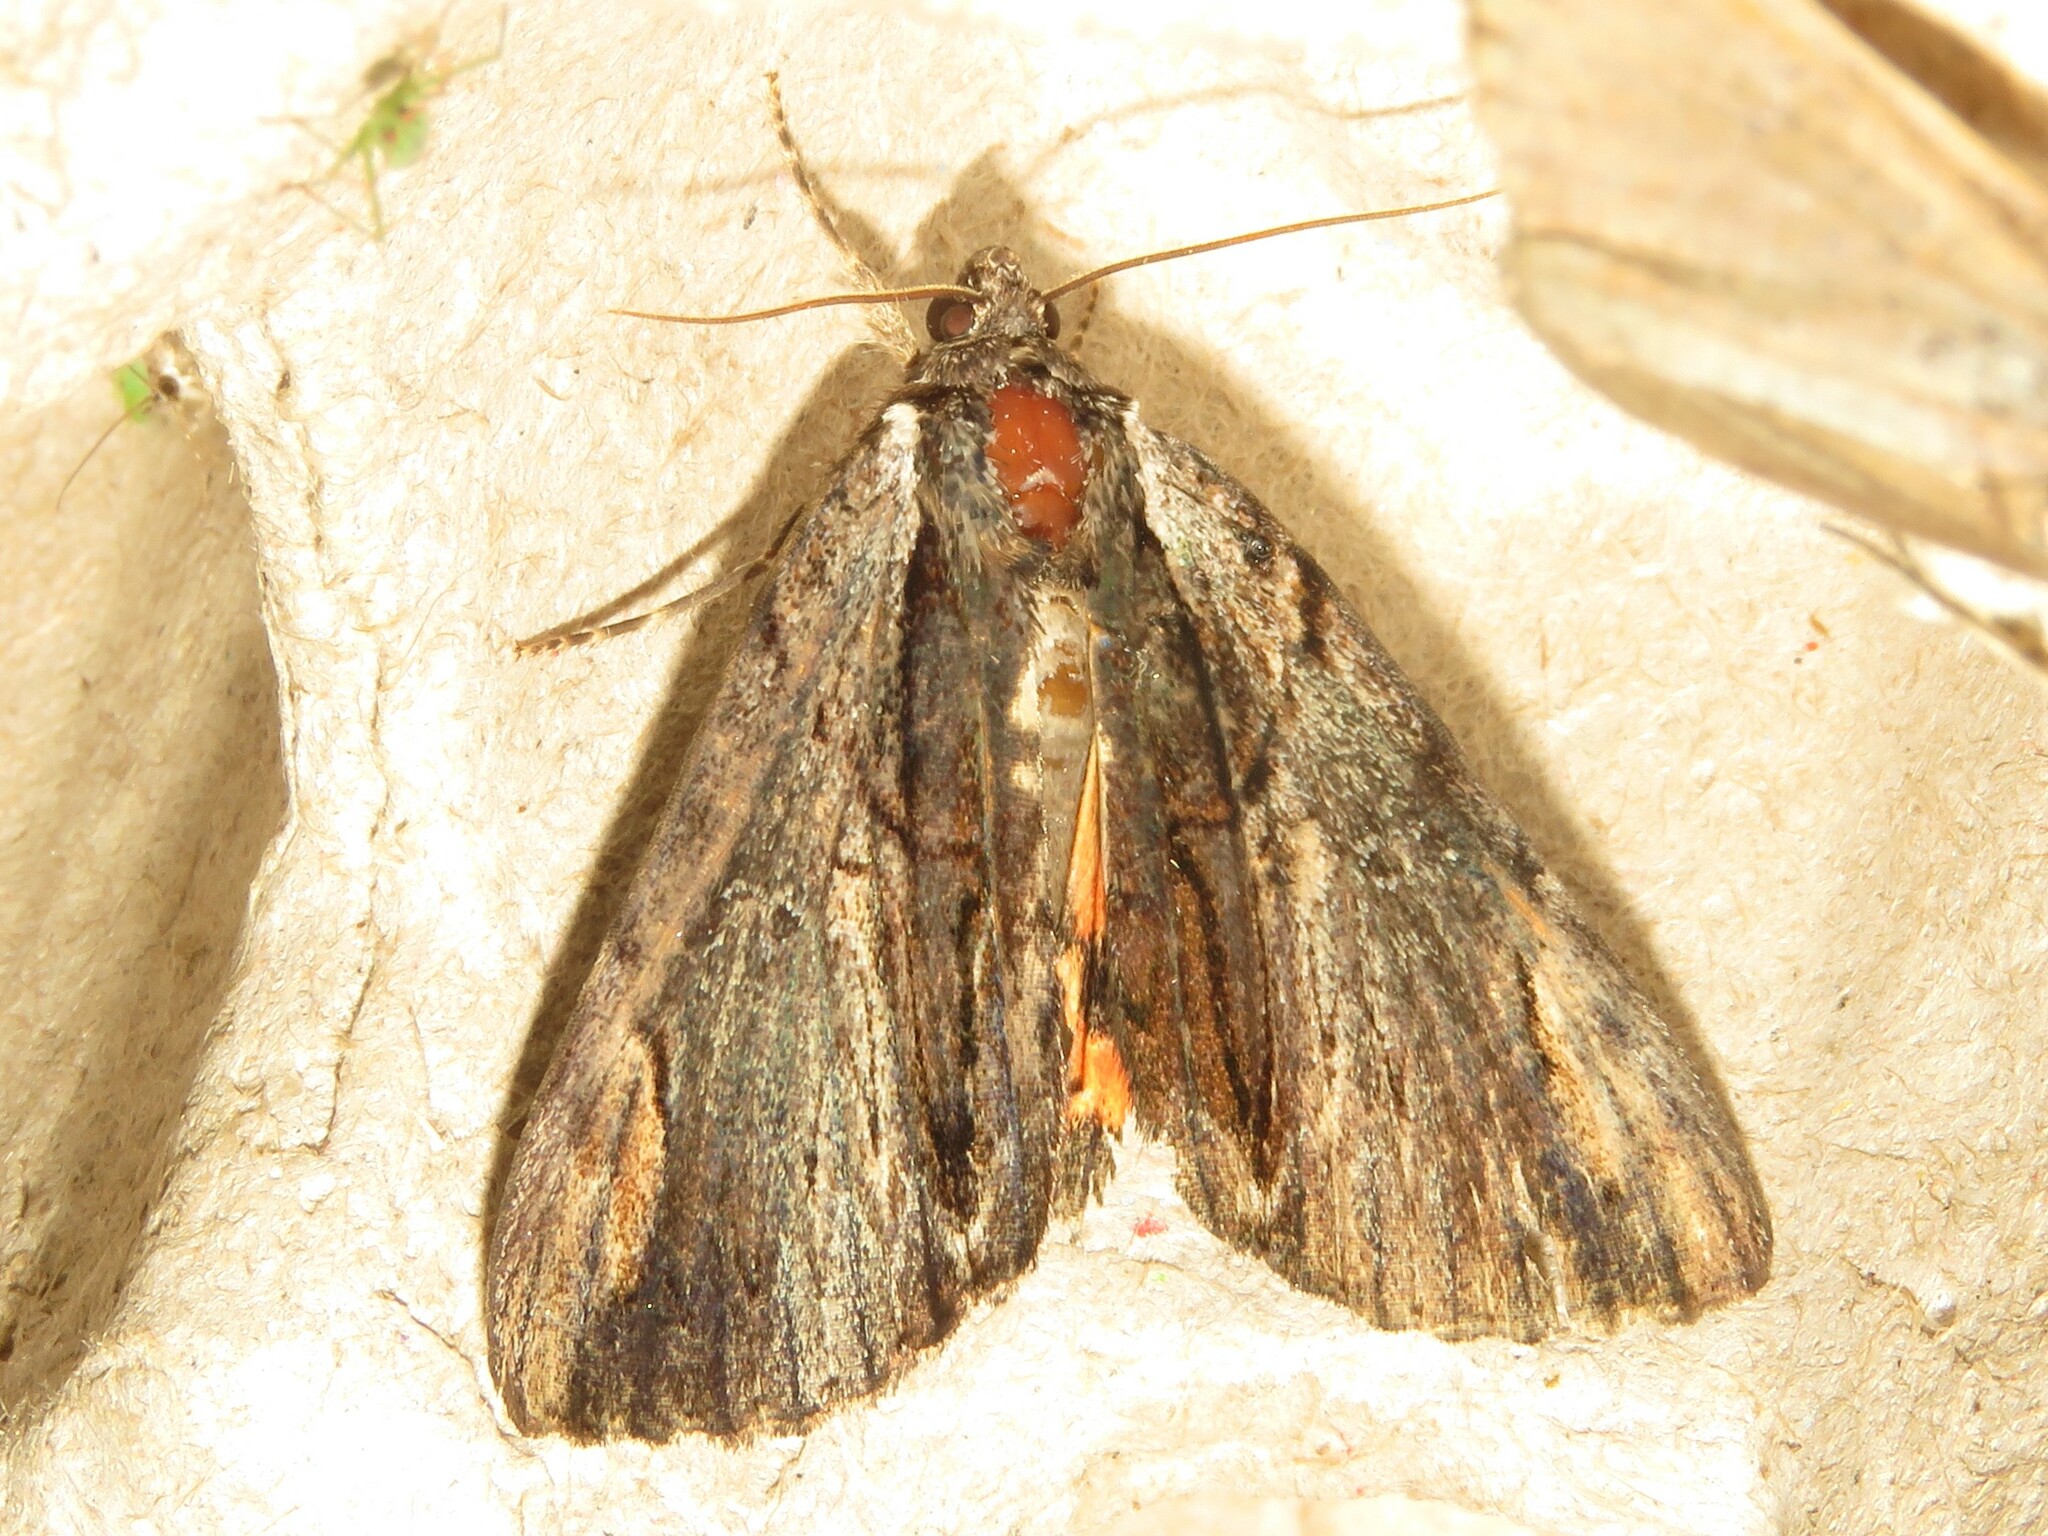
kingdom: Animalia
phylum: Arthropoda
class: Insecta
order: Lepidoptera
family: Erebidae
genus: Catocala
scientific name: Catocala ultronia
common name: Ultronia underwing
